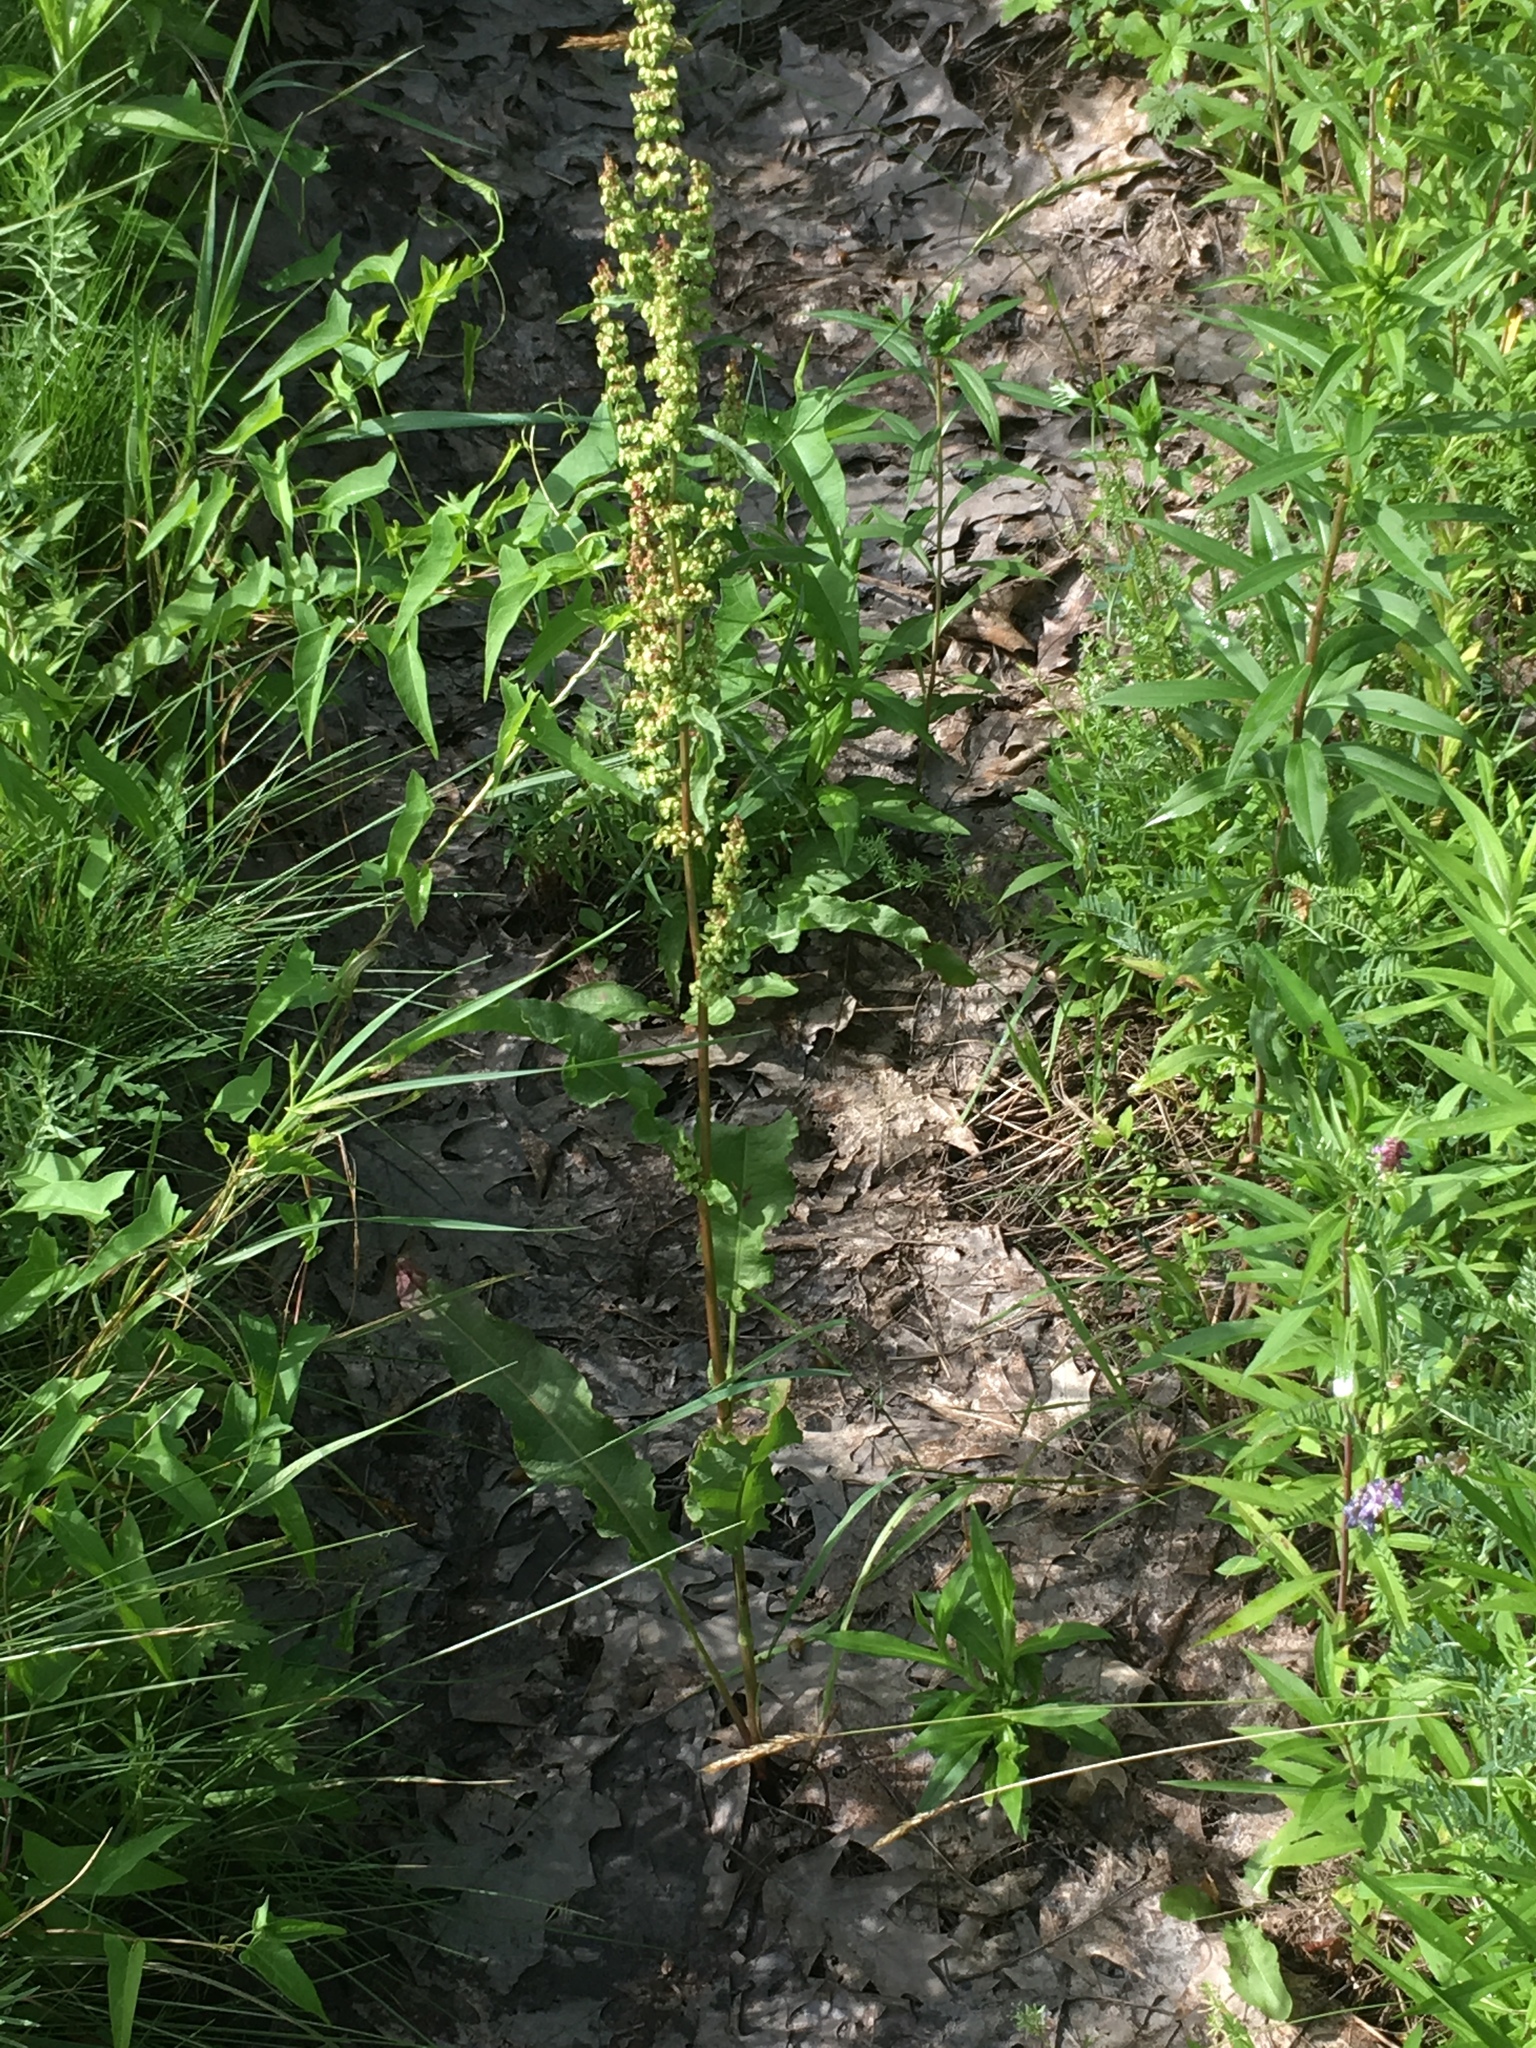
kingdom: Plantae
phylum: Tracheophyta
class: Magnoliopsida
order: Caryophyllales
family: Polygonaceae
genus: Rumex
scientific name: Rumex crispus
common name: Curled dock
